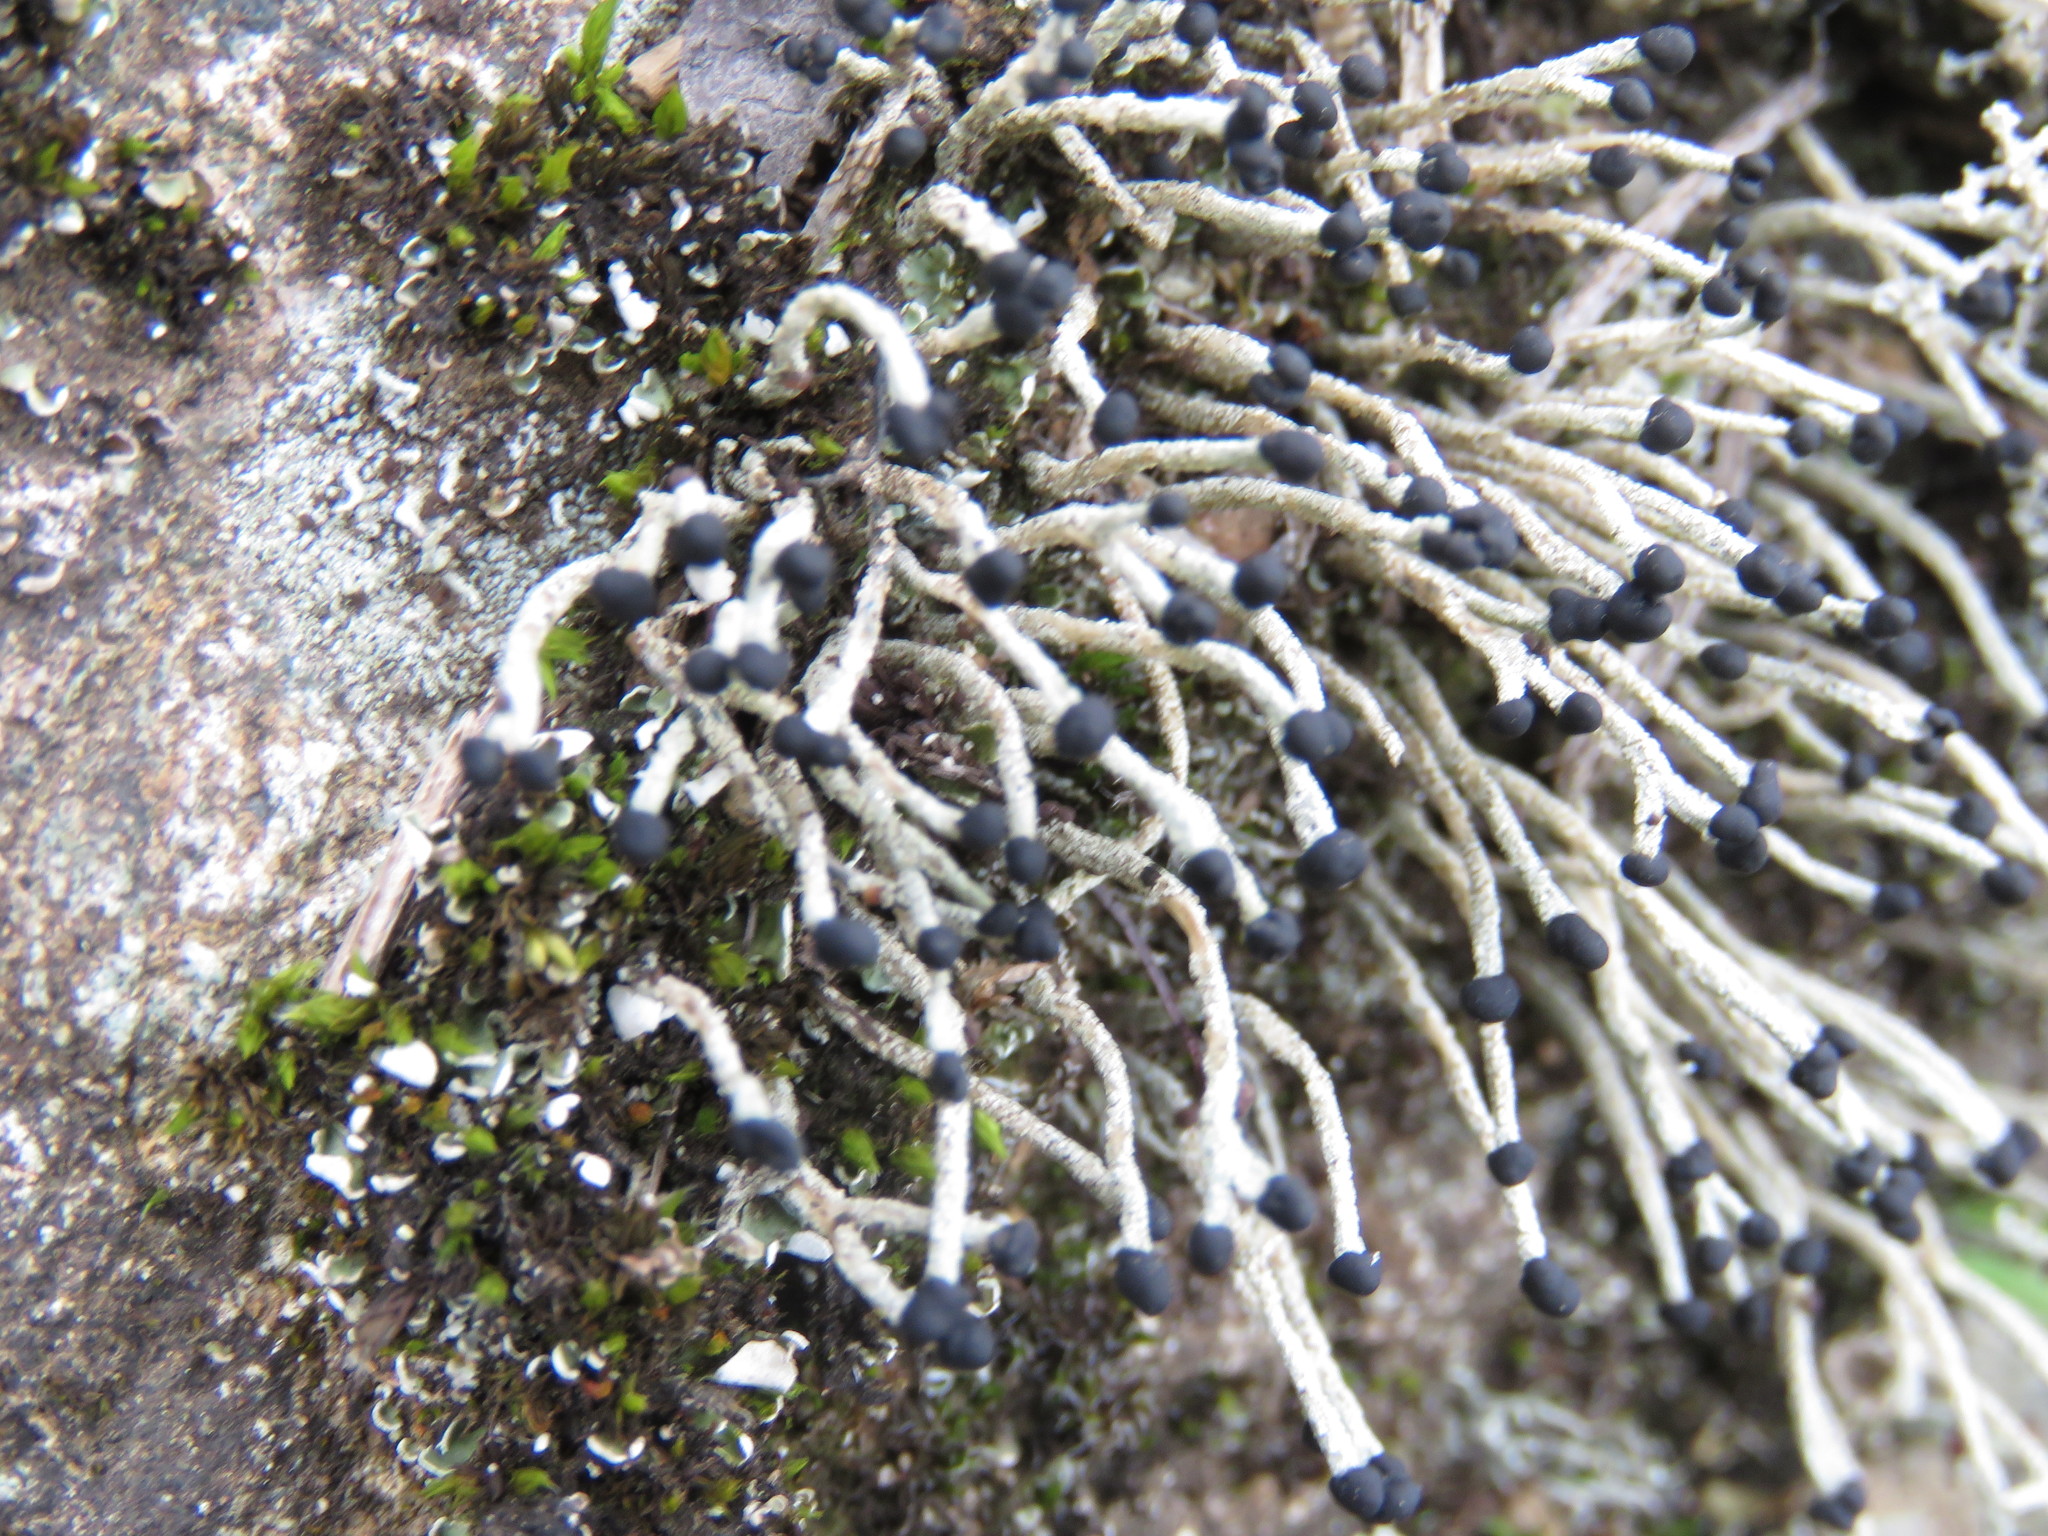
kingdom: Fungi
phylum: Ascomycota
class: Lecanoromycetes
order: Lecanorales
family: Cladoniaceae
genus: Pilophorus
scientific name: Pilophorus acicularis
